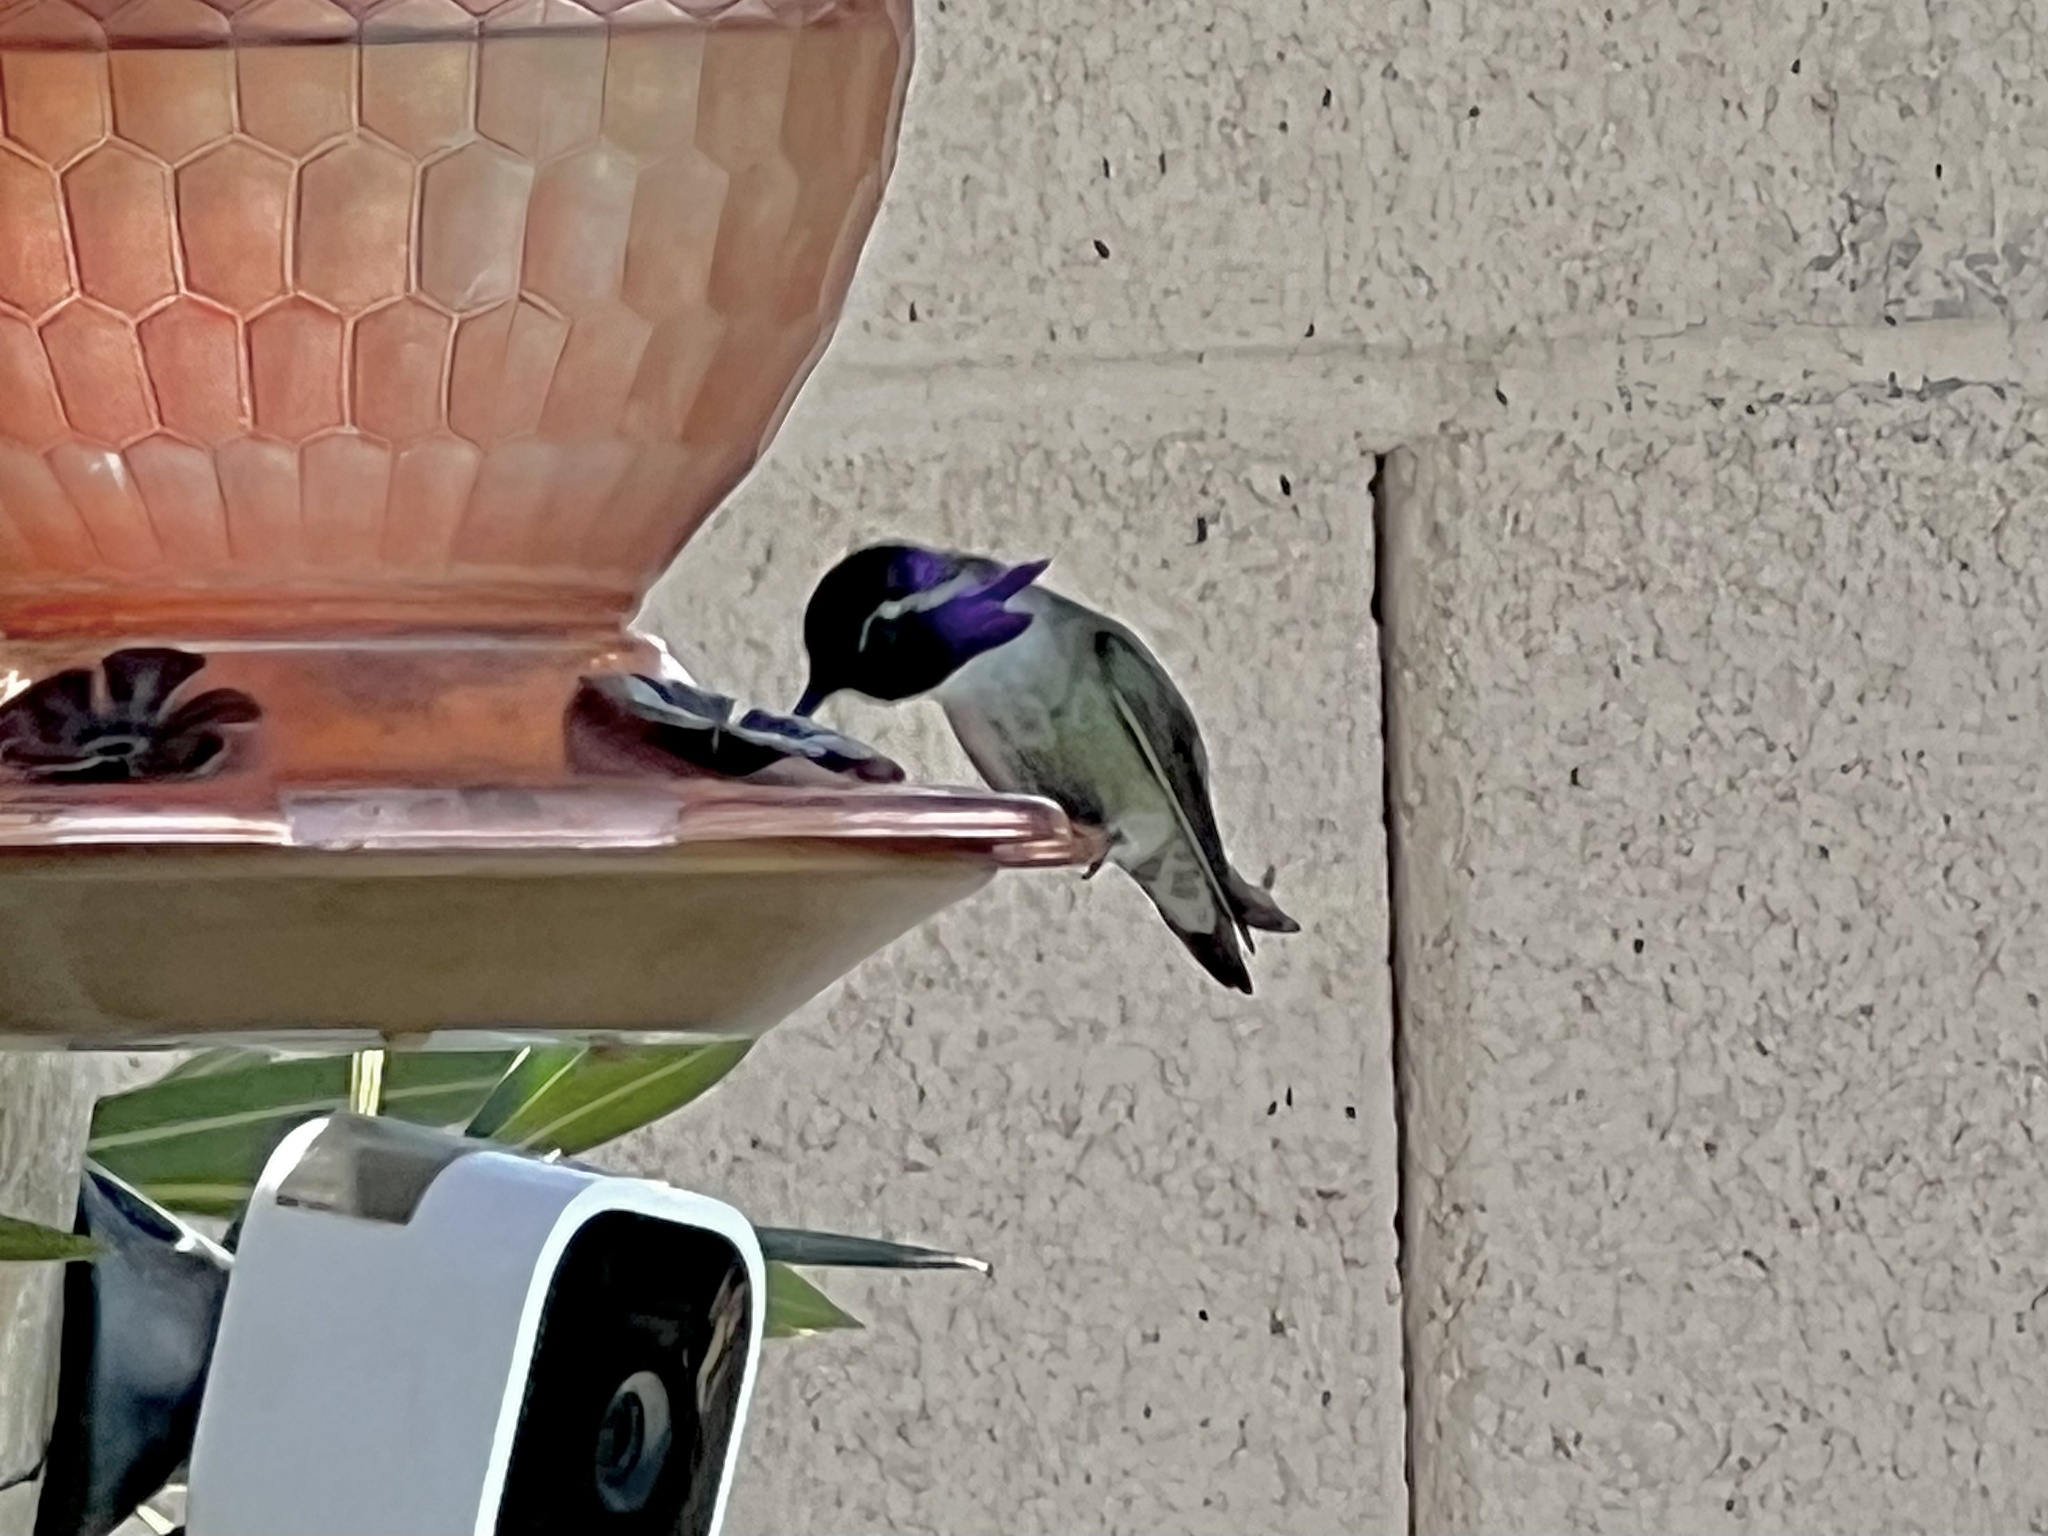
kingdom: Animalia
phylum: Chordata
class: Aves
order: Apodiformes
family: Trochilidae
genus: Calypte
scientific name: Calypte costae
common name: Costa's hummingbird
